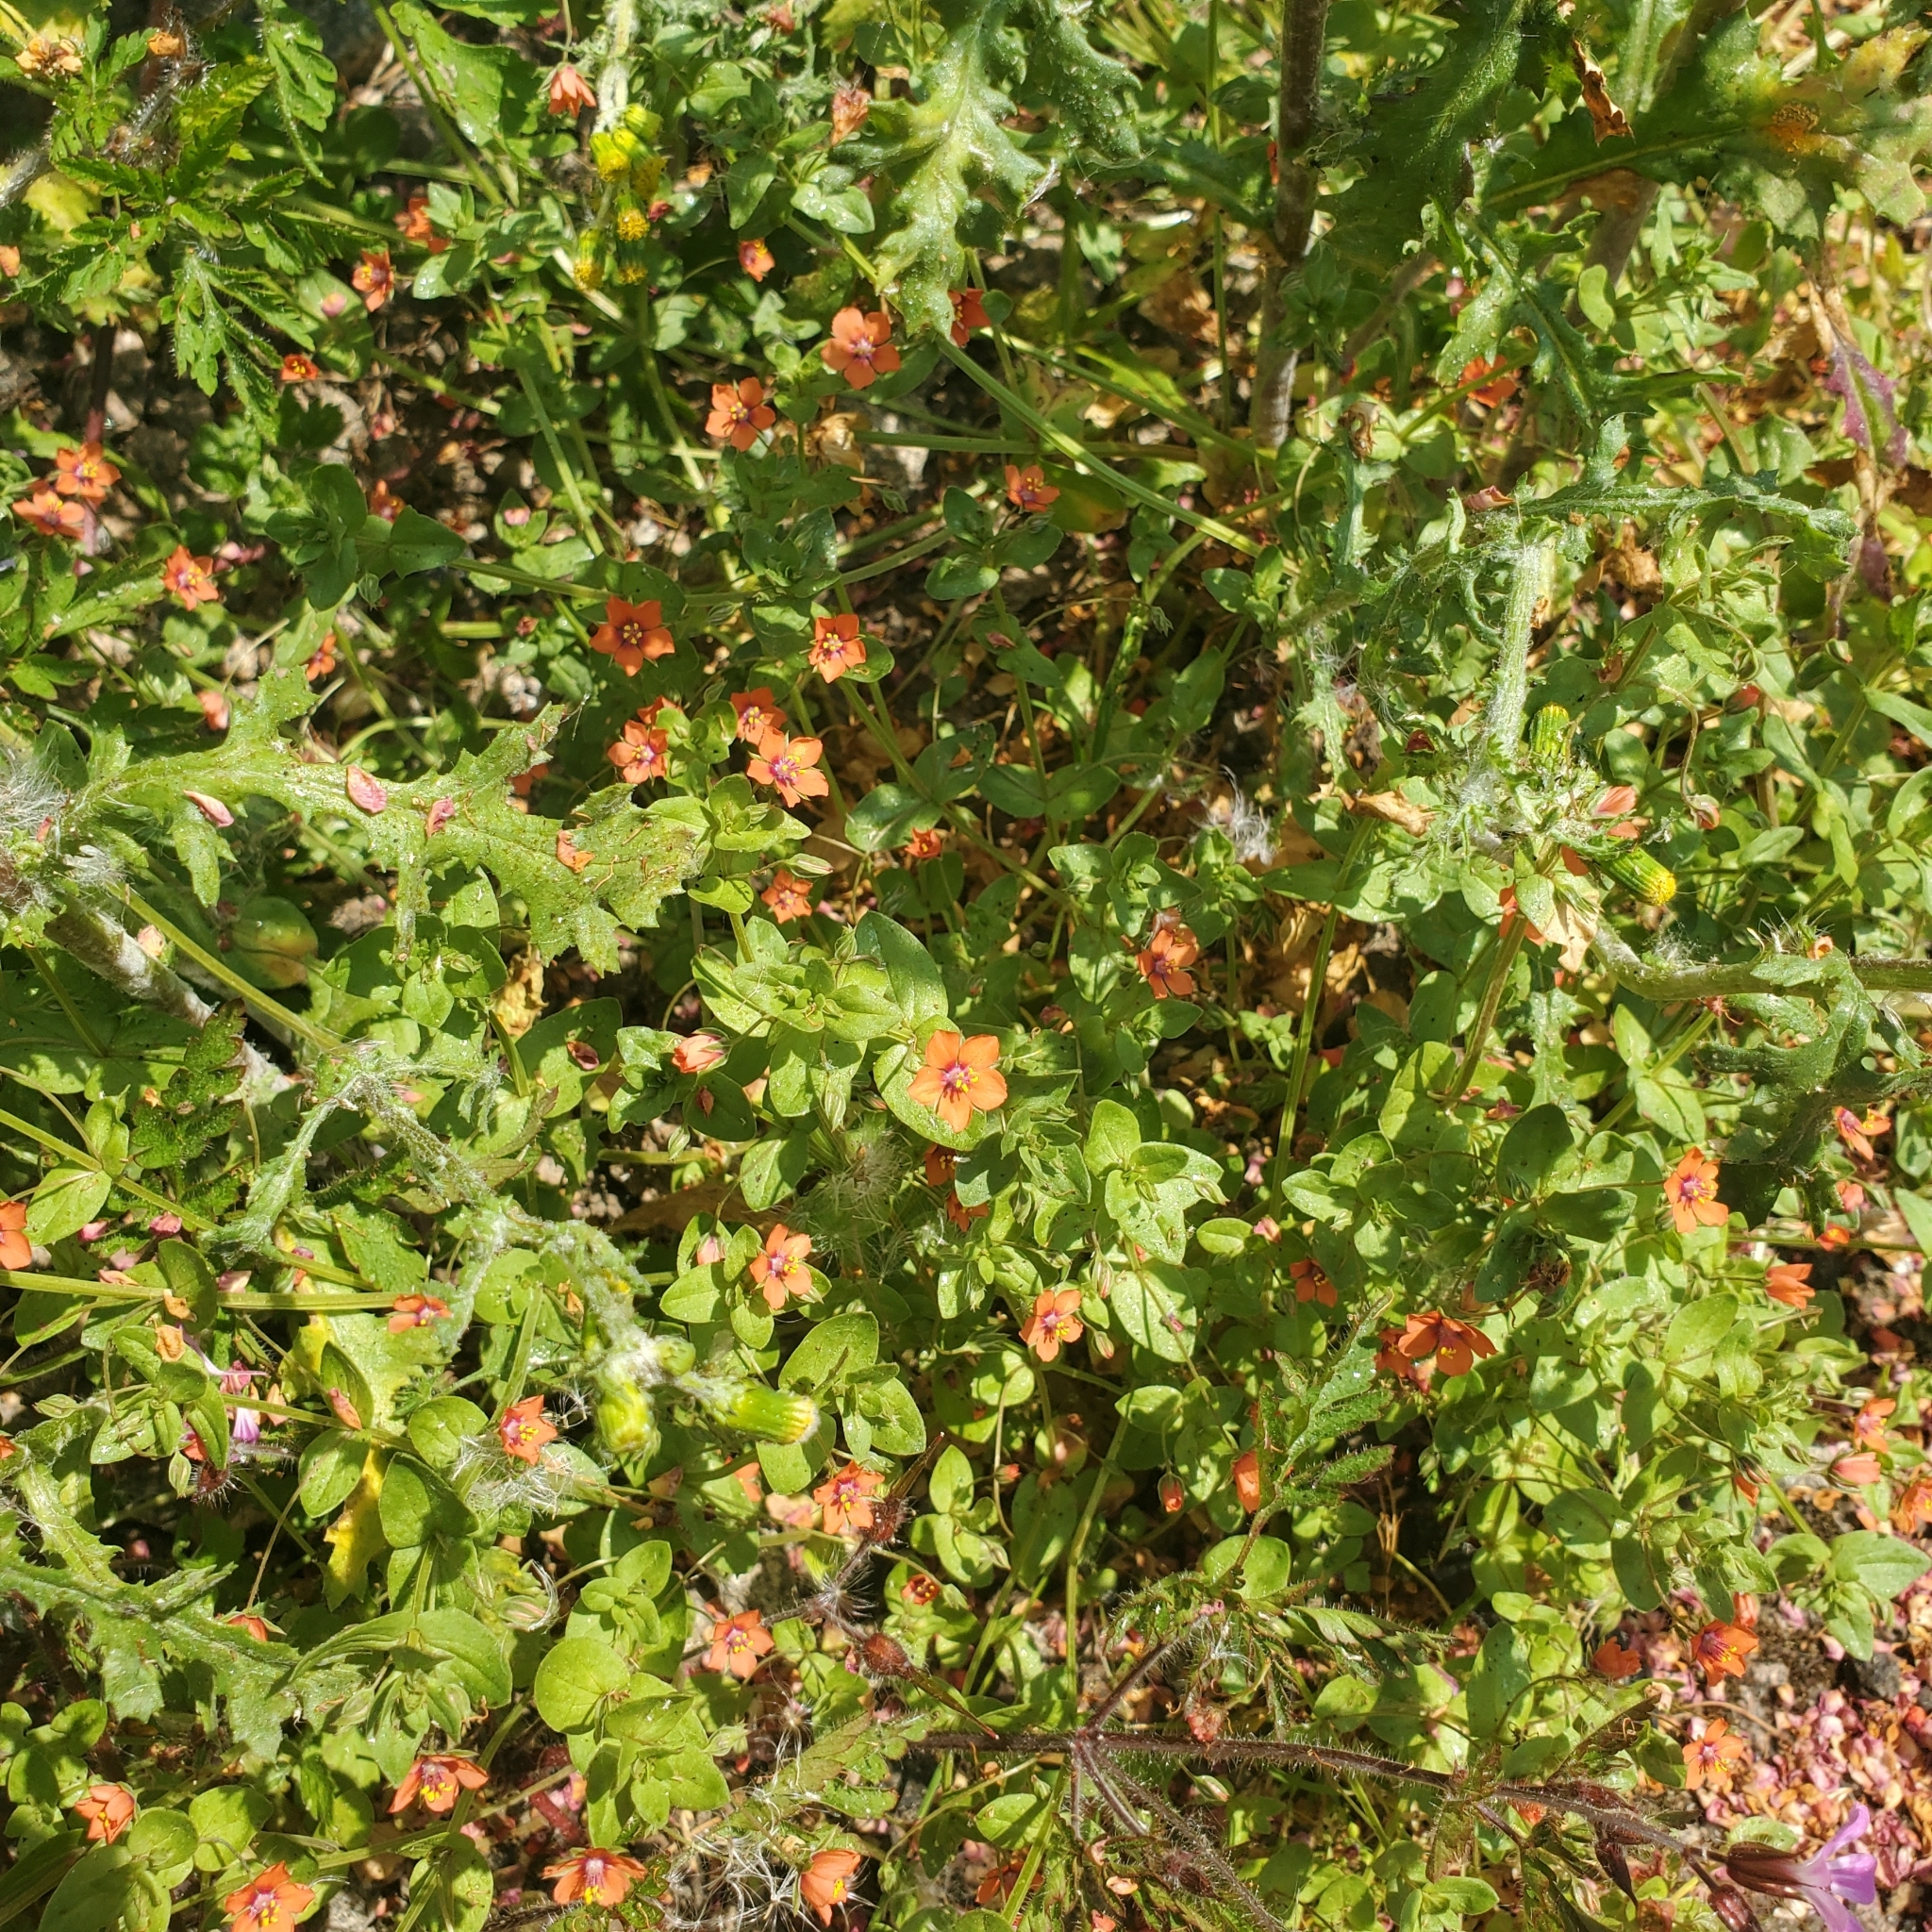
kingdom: Plantae
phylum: Tracheophyta
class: Magnoliopsida
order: Ericales
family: Primulaceae
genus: Lysimachia
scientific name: Lysimachia arvensis
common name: Scarlet pimpernel
